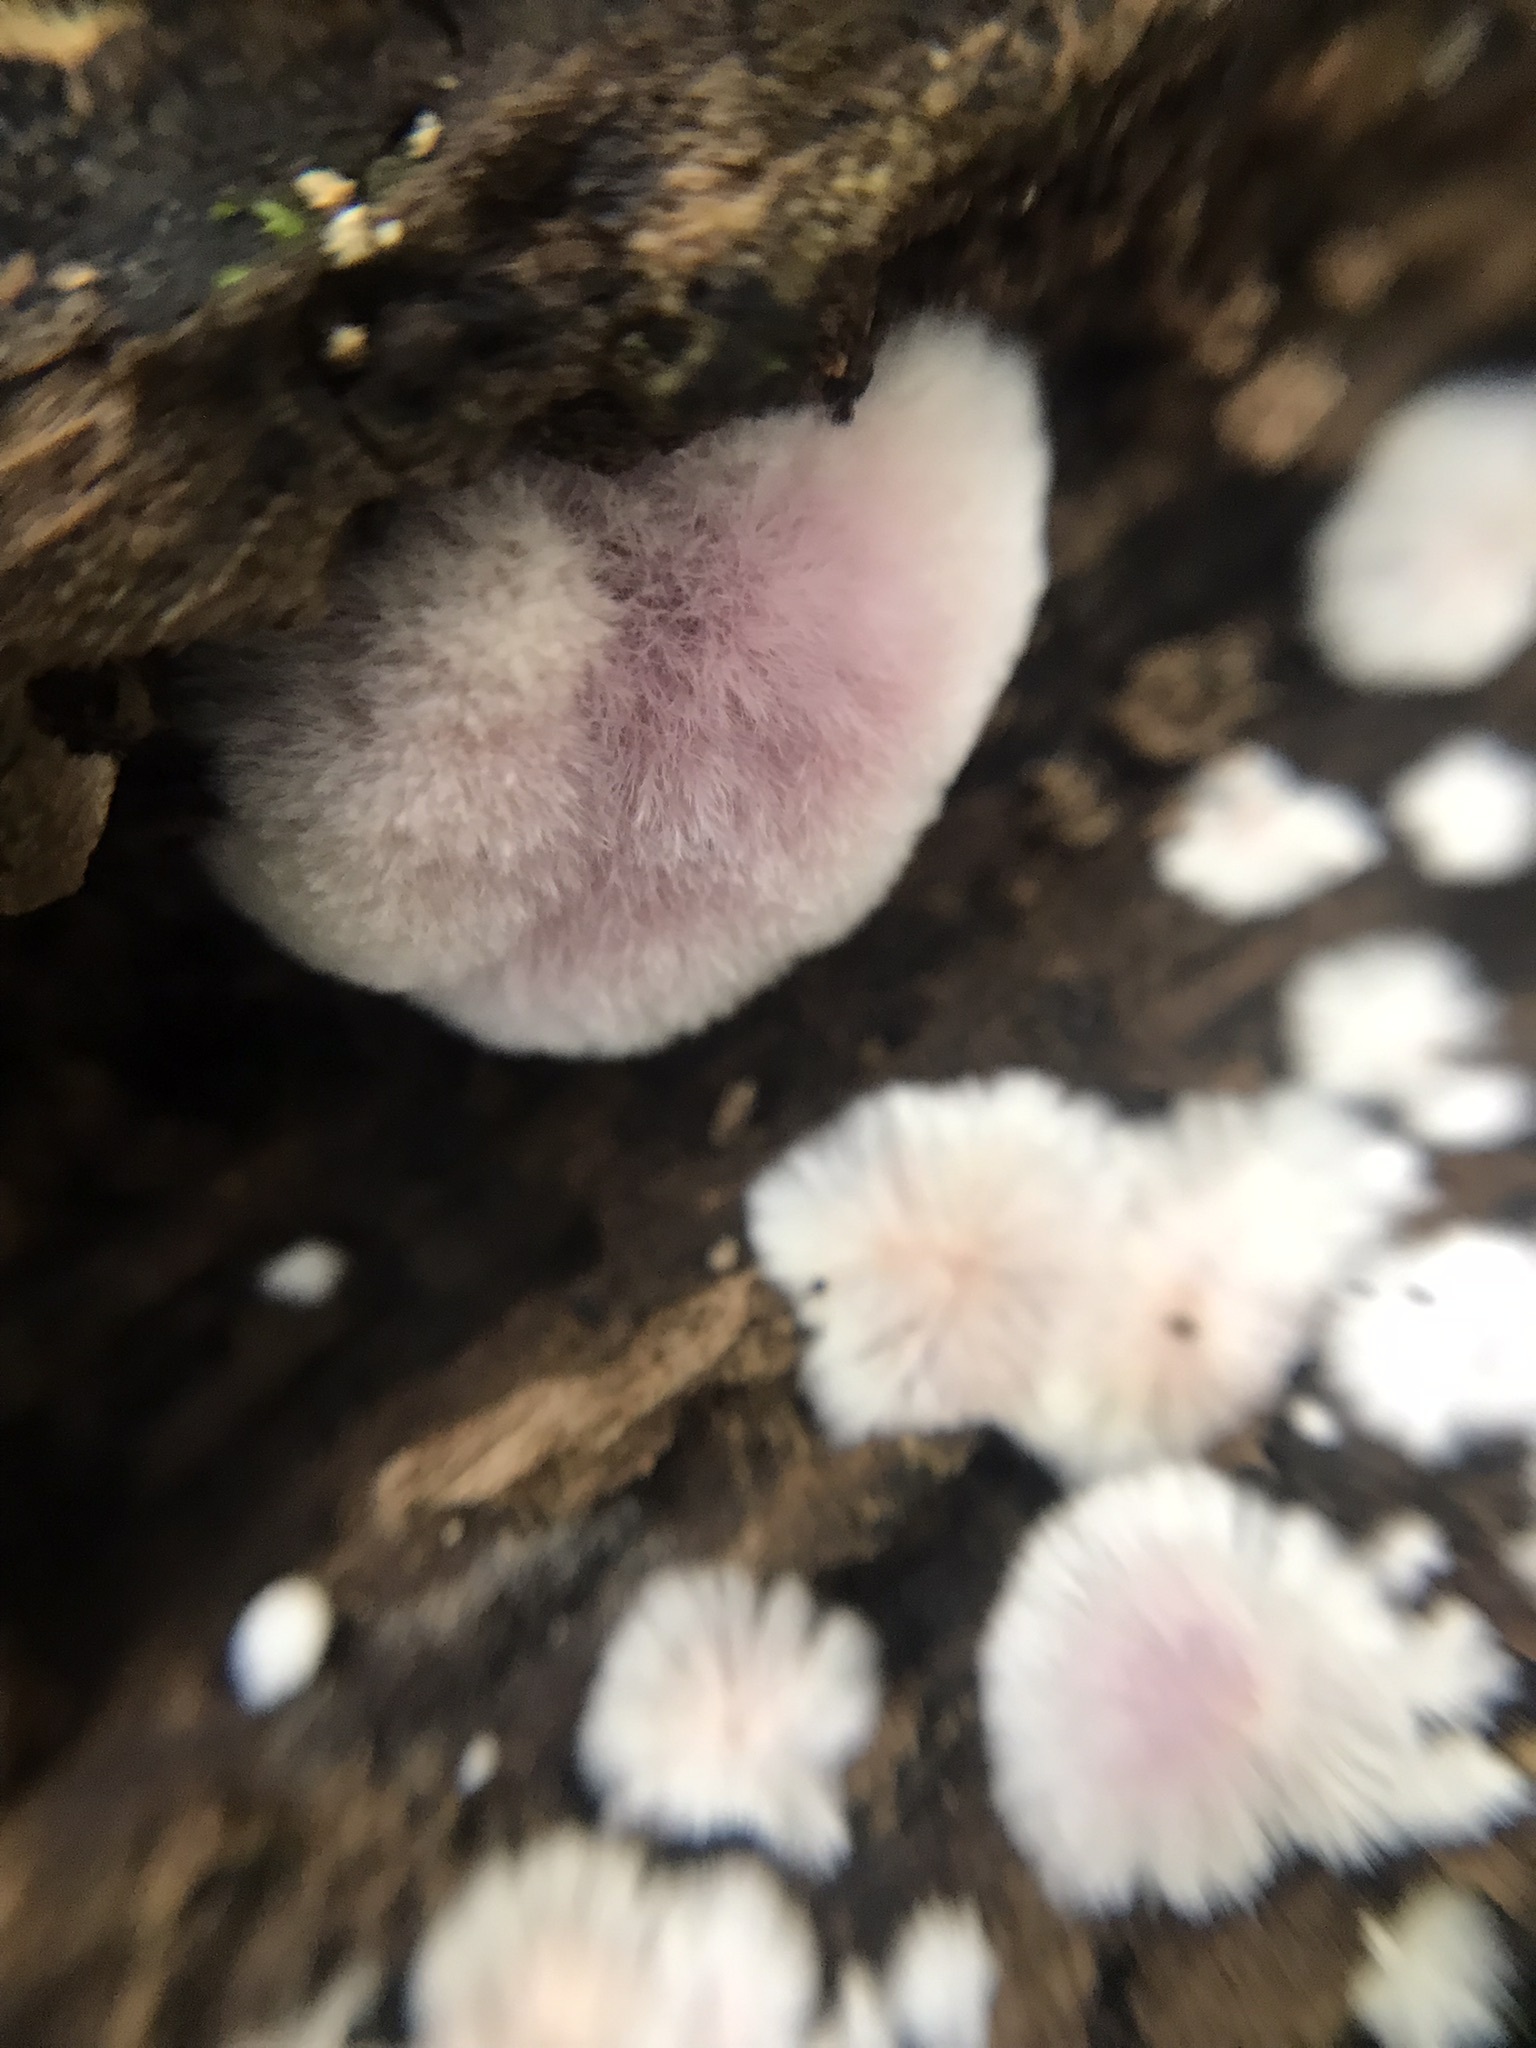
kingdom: Fungi
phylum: Basidiomycota
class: Agaricomycetes
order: Corticiales
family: Punctulariaceae
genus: Punctularia
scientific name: Punctularia atropurpurascens
